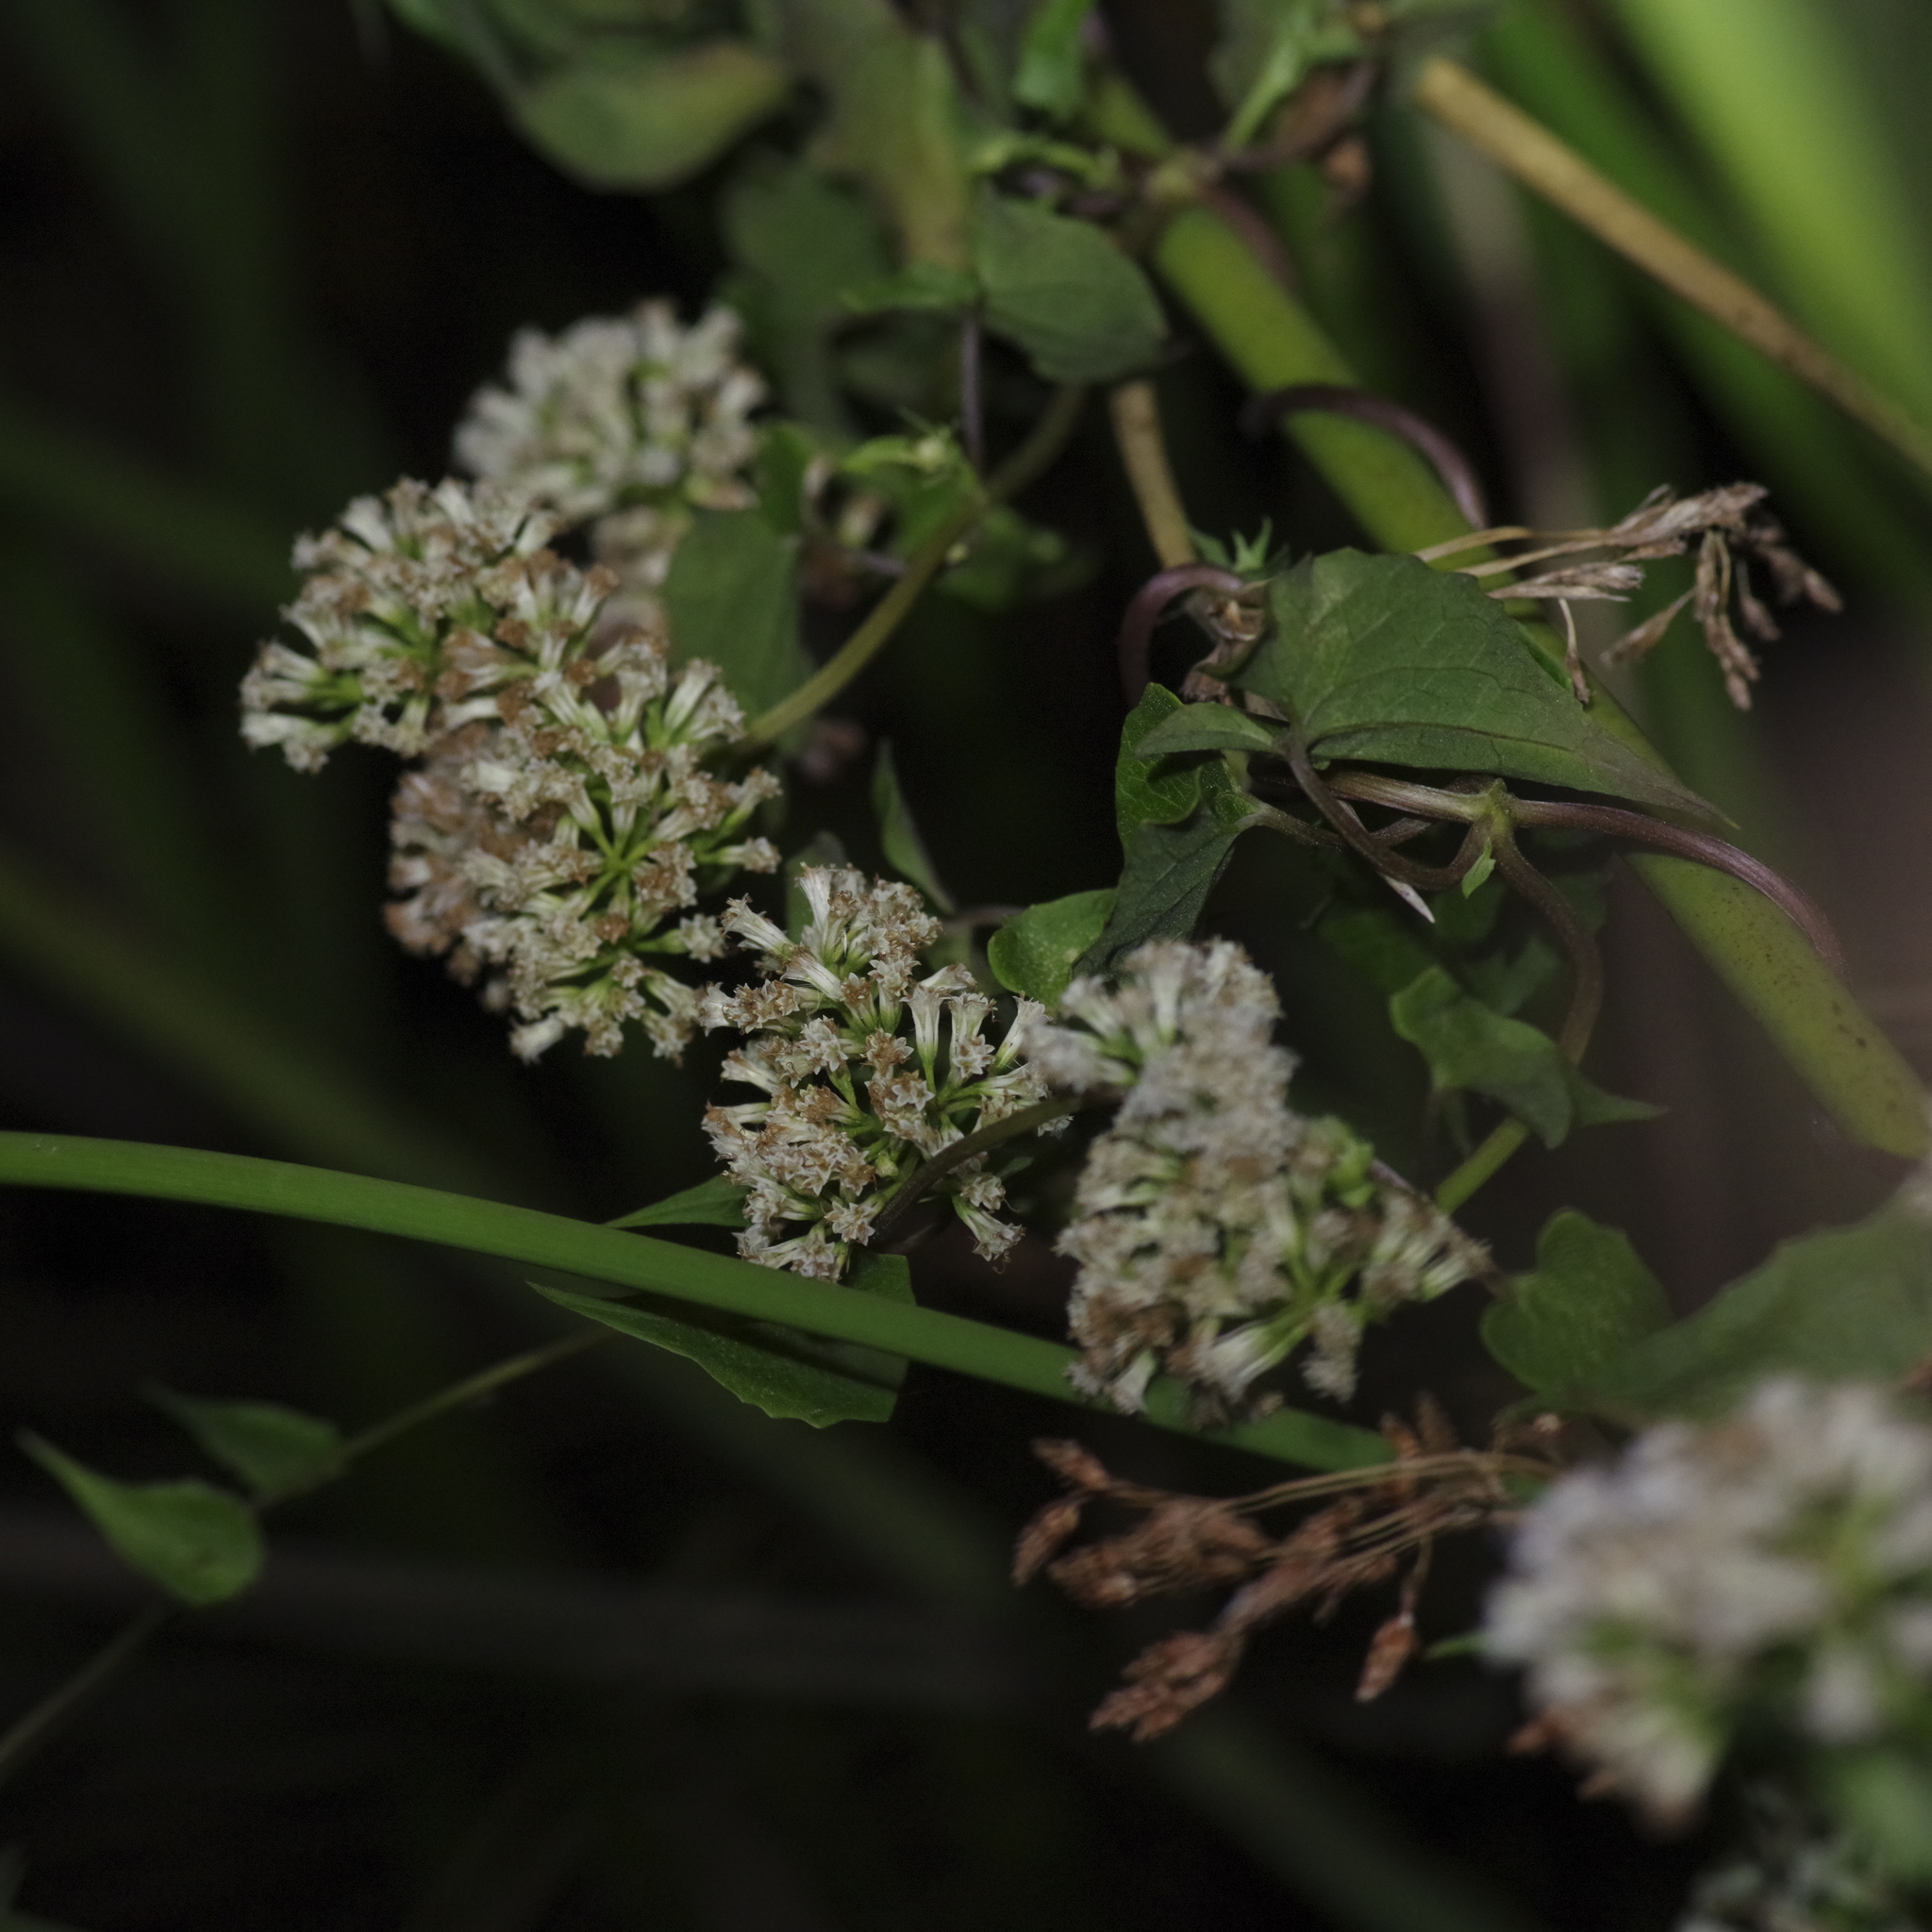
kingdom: Plantae
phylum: Tracheophyta
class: Magnoliopsida
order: Asterales
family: Asteraceae
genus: Mikania
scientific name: Mikania scandens
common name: Climbing hempvine
